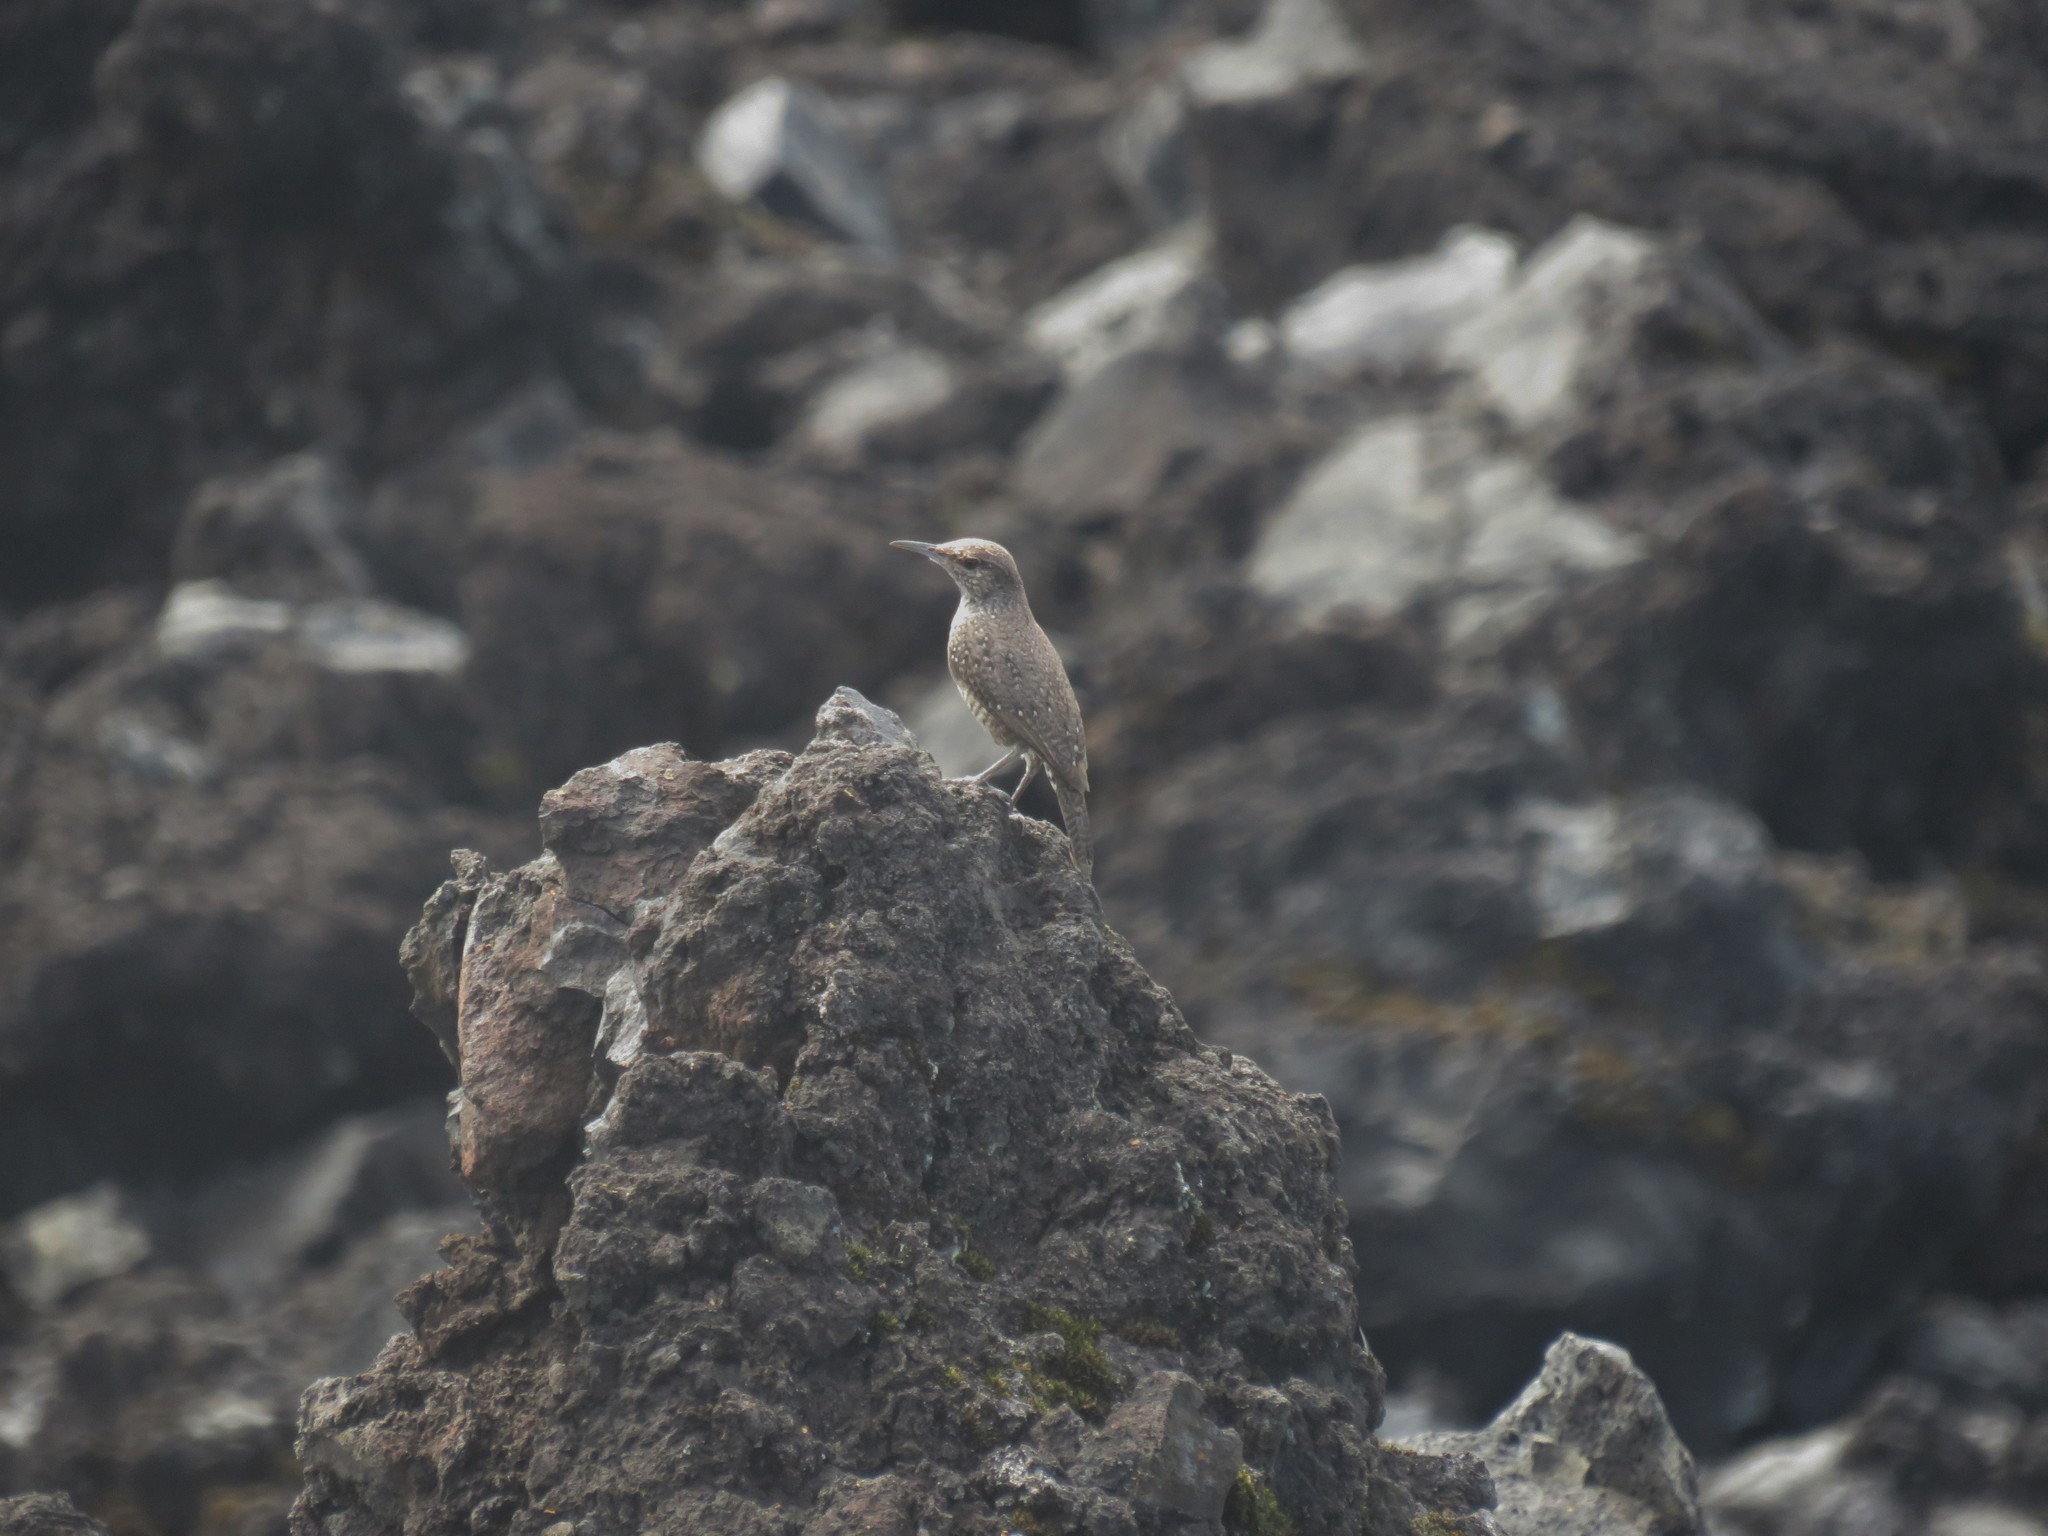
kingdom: Animalia
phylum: Chordata
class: Aves
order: Passeriformes
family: Troglodytidae
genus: Salpinctes
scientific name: Salpinctes obsoletus
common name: Rock wren
